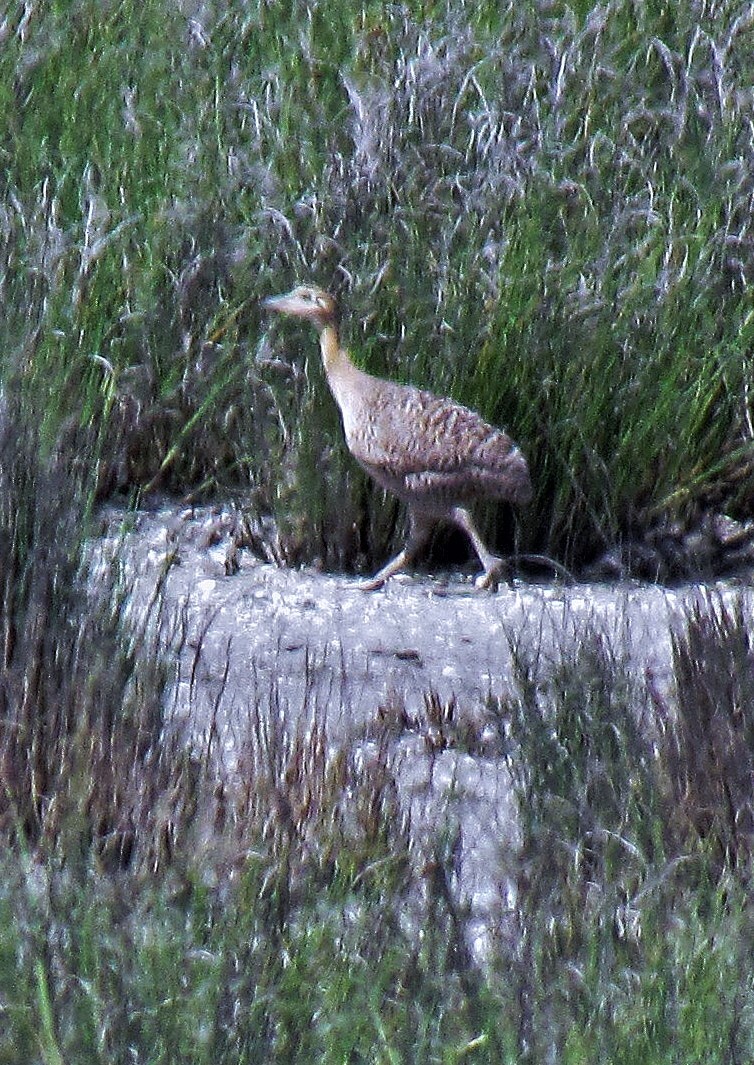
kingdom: Animalia
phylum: Chordata
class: Aves
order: Tinamiformes
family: Tinamidae
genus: Rhynchotus
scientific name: Rhynchotus rufescens
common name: Red-winged tinamou
